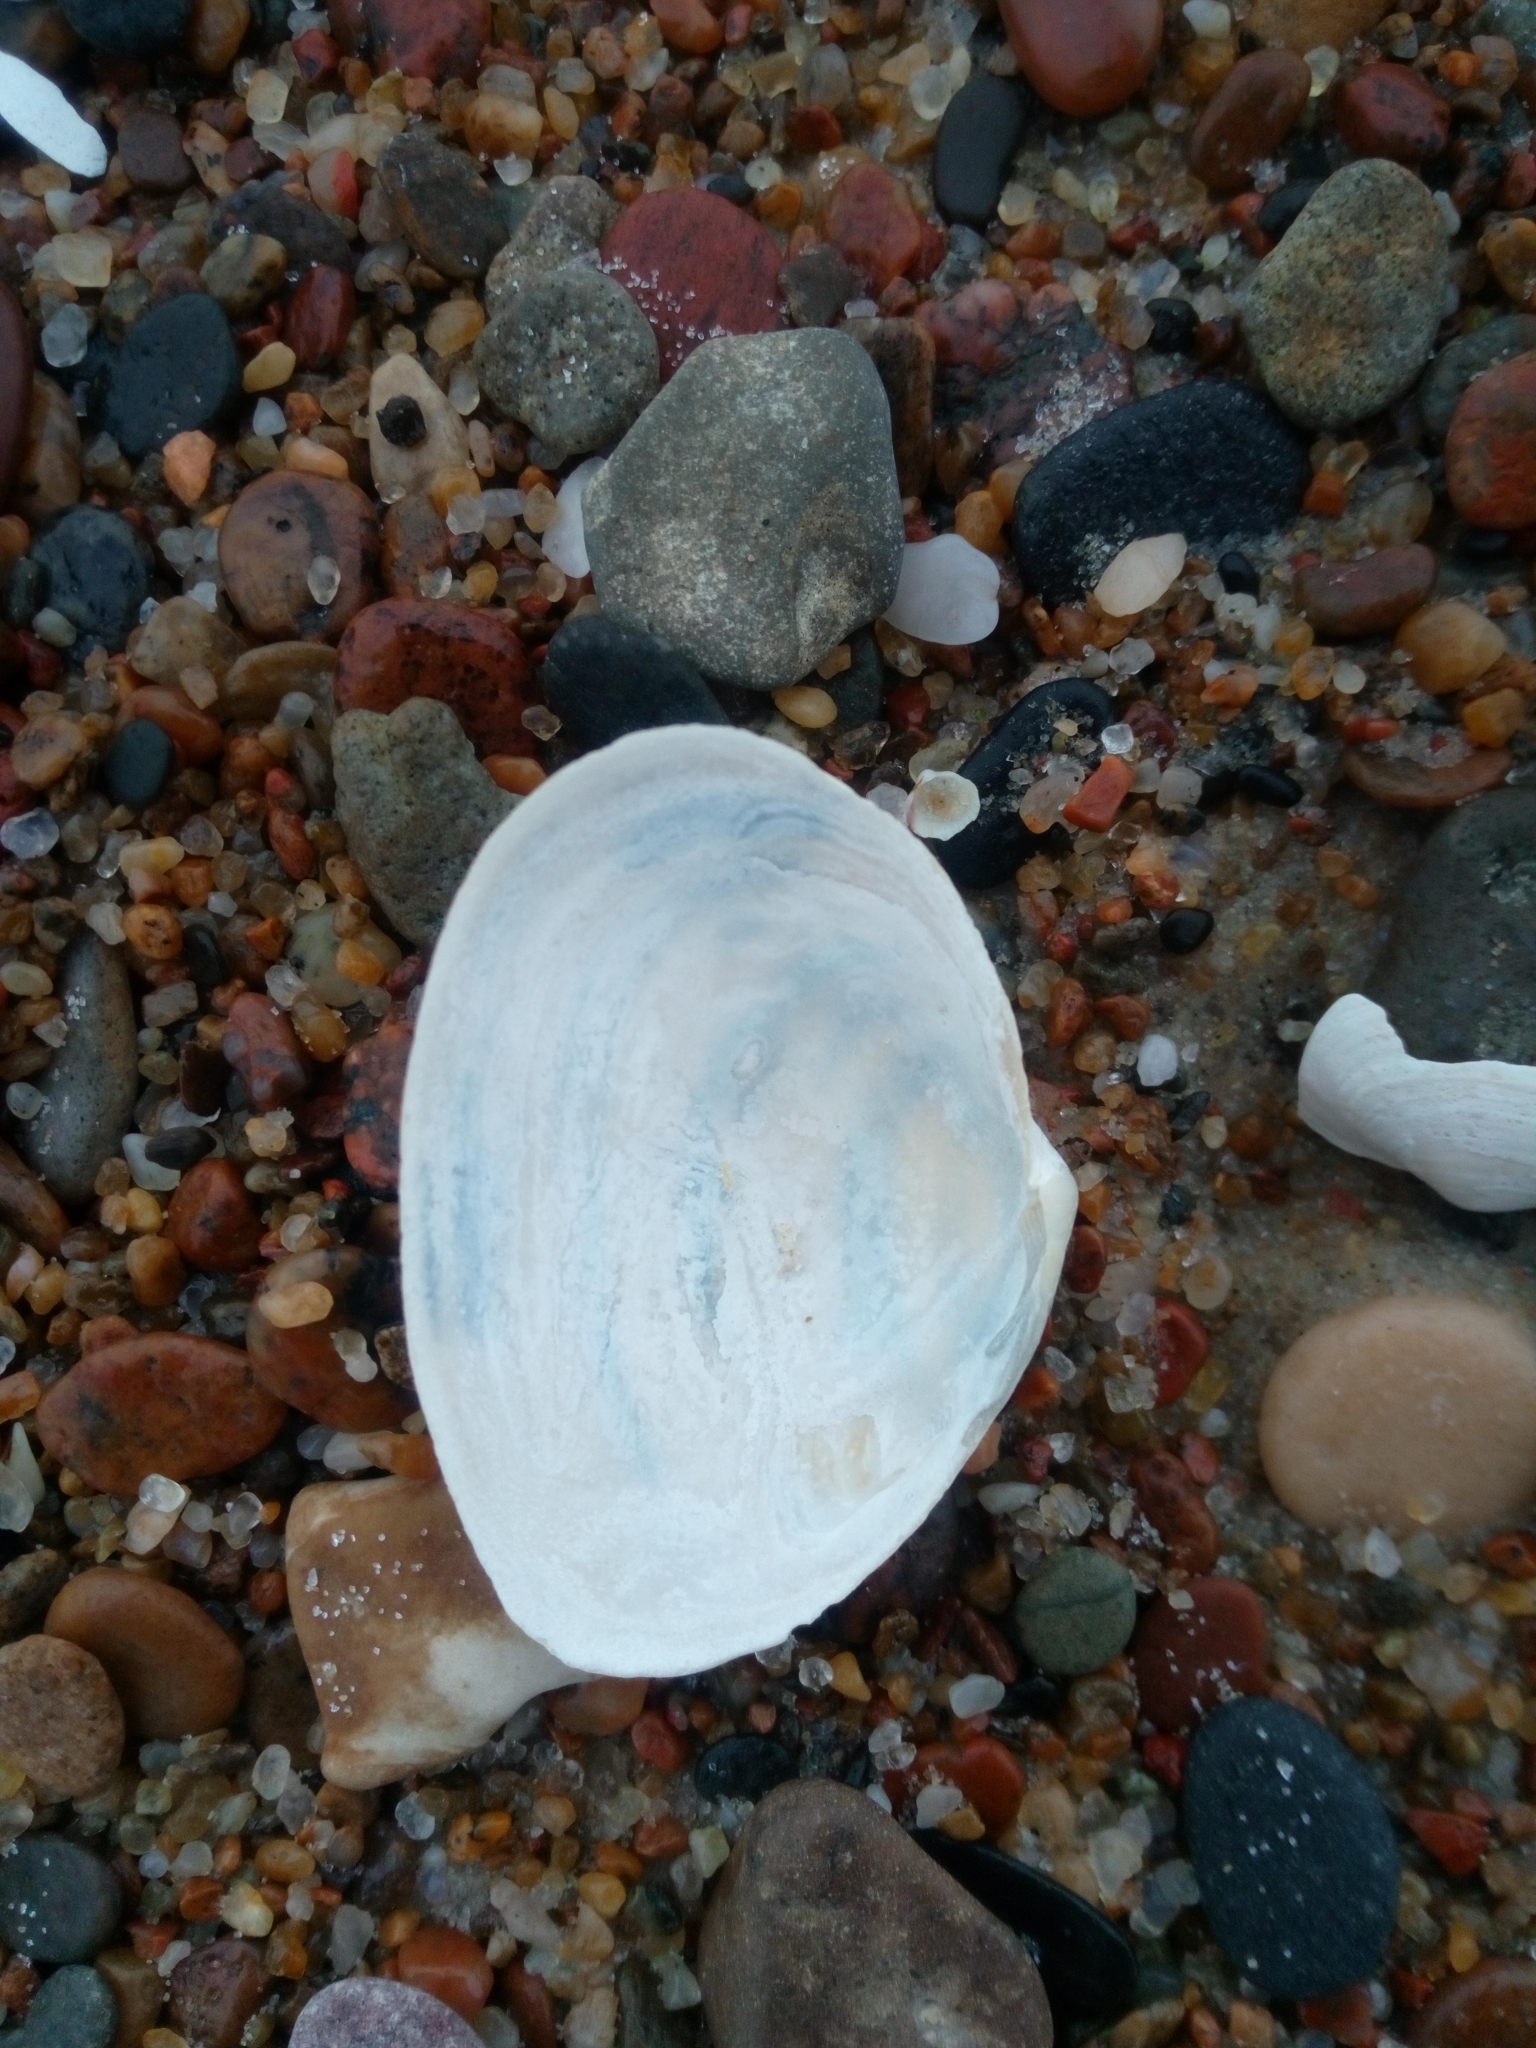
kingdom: Animalia
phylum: Mollusca
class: Bivalvia
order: Myida
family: Myidae
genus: Mya
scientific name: Mya arenaria
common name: Soft-shelled clam
